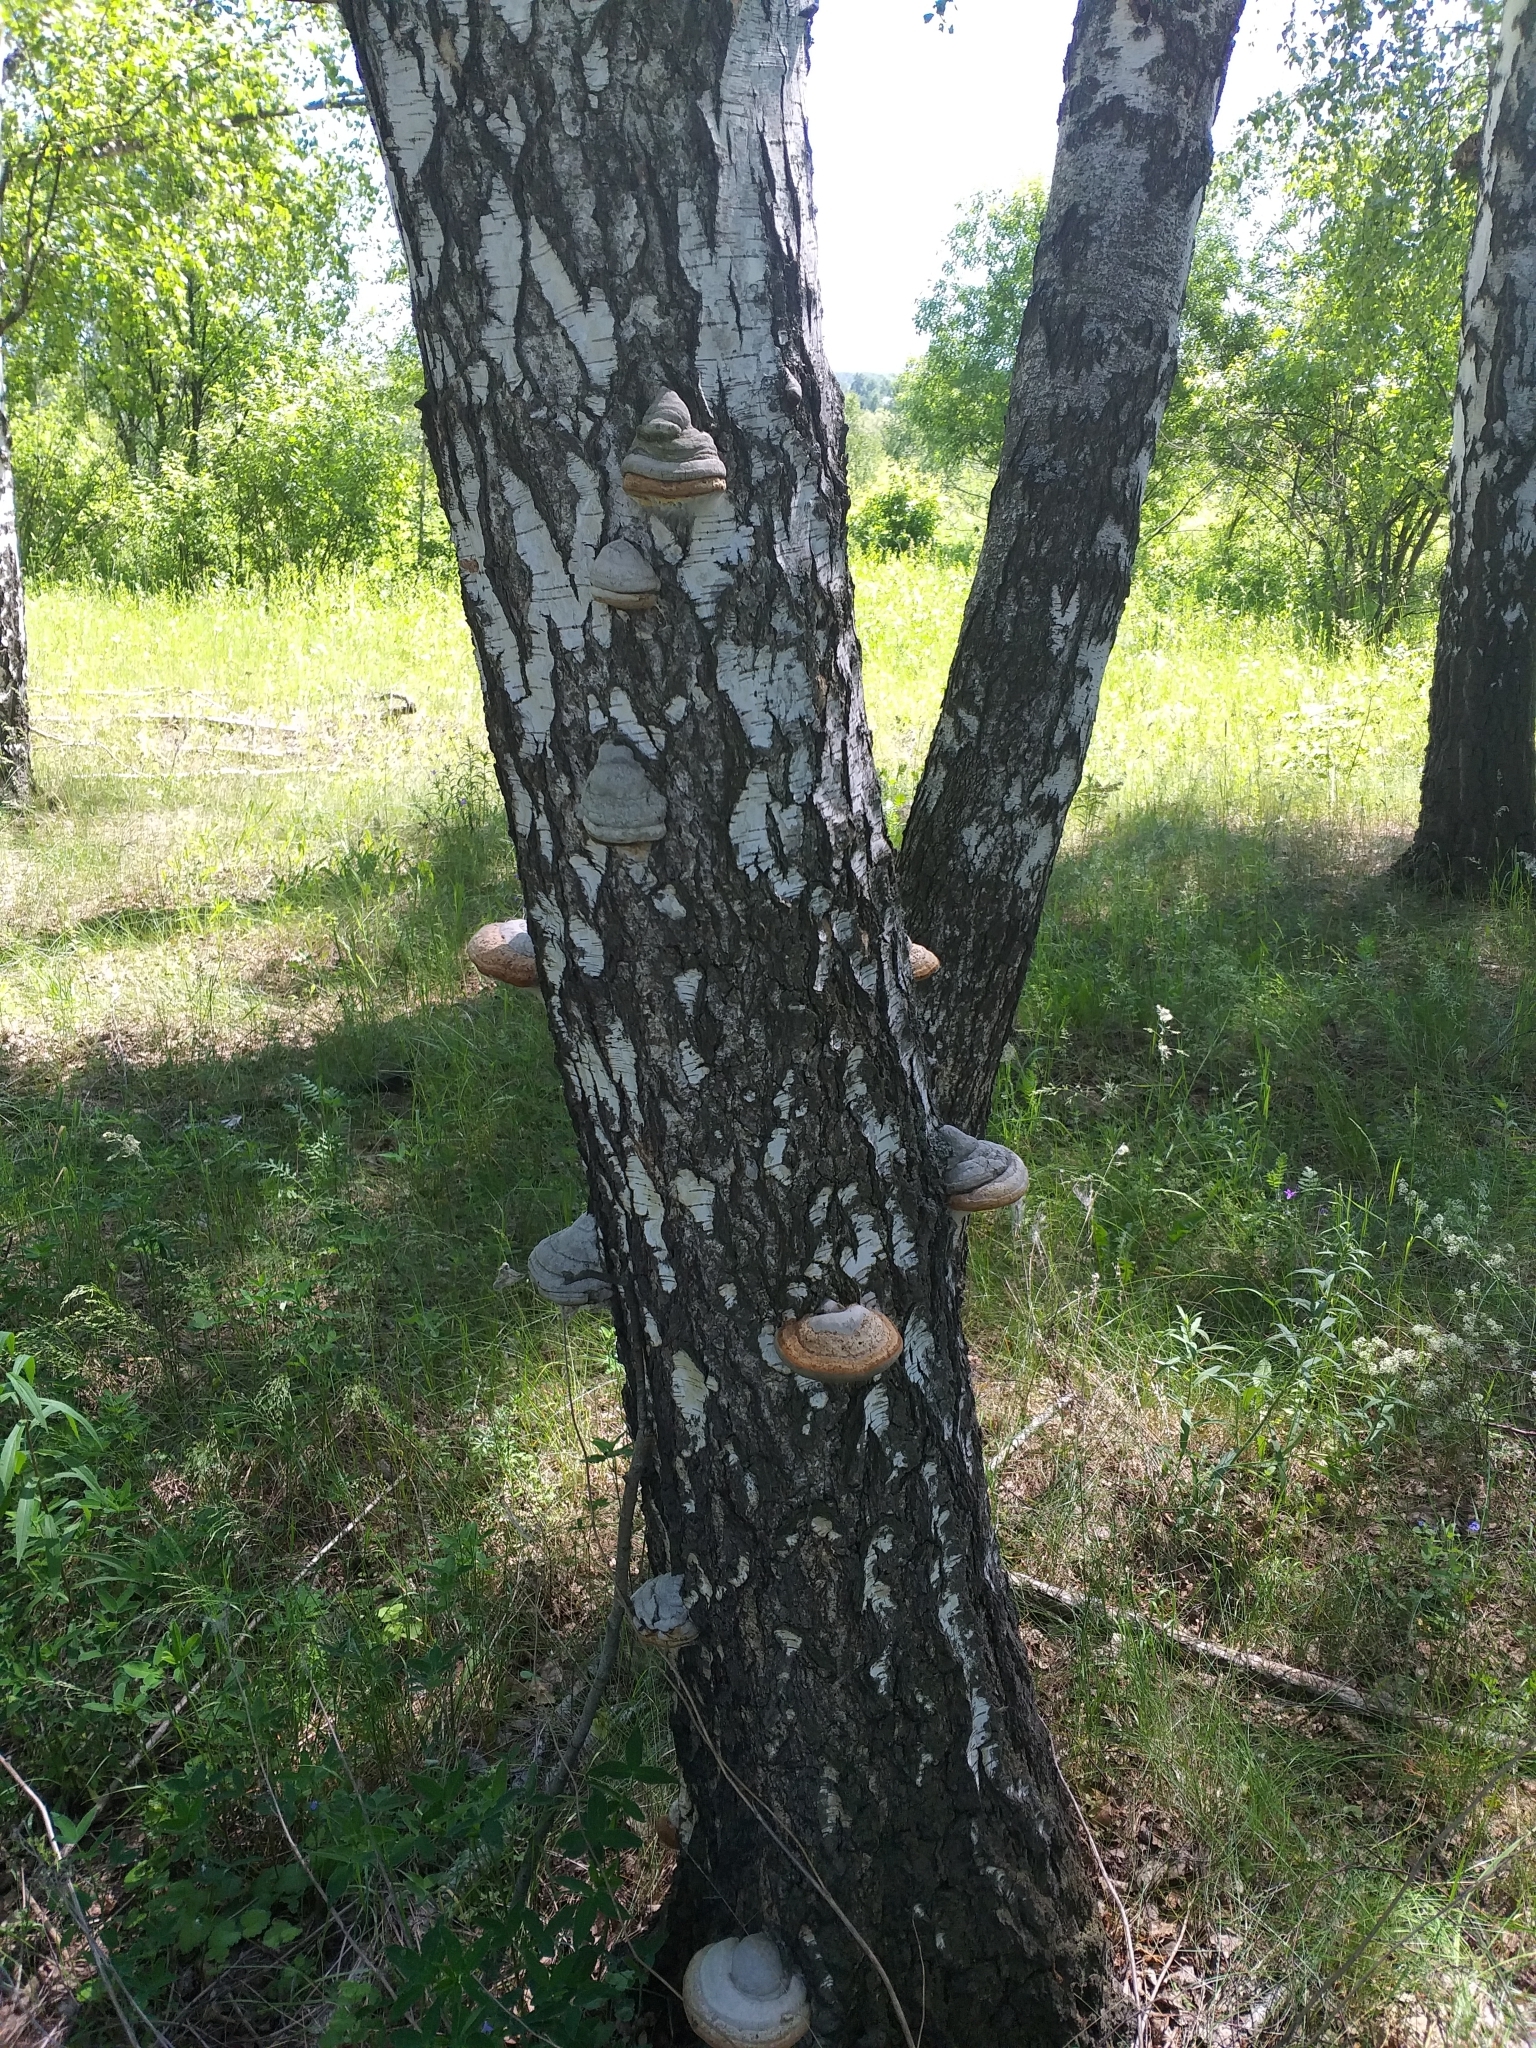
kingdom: Fungi
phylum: Basidiomycota
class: Agaricomycetes
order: Polyporales
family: Polyporaceae
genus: Fomes
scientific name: Fomes fomentarius
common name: Hoof fungus
